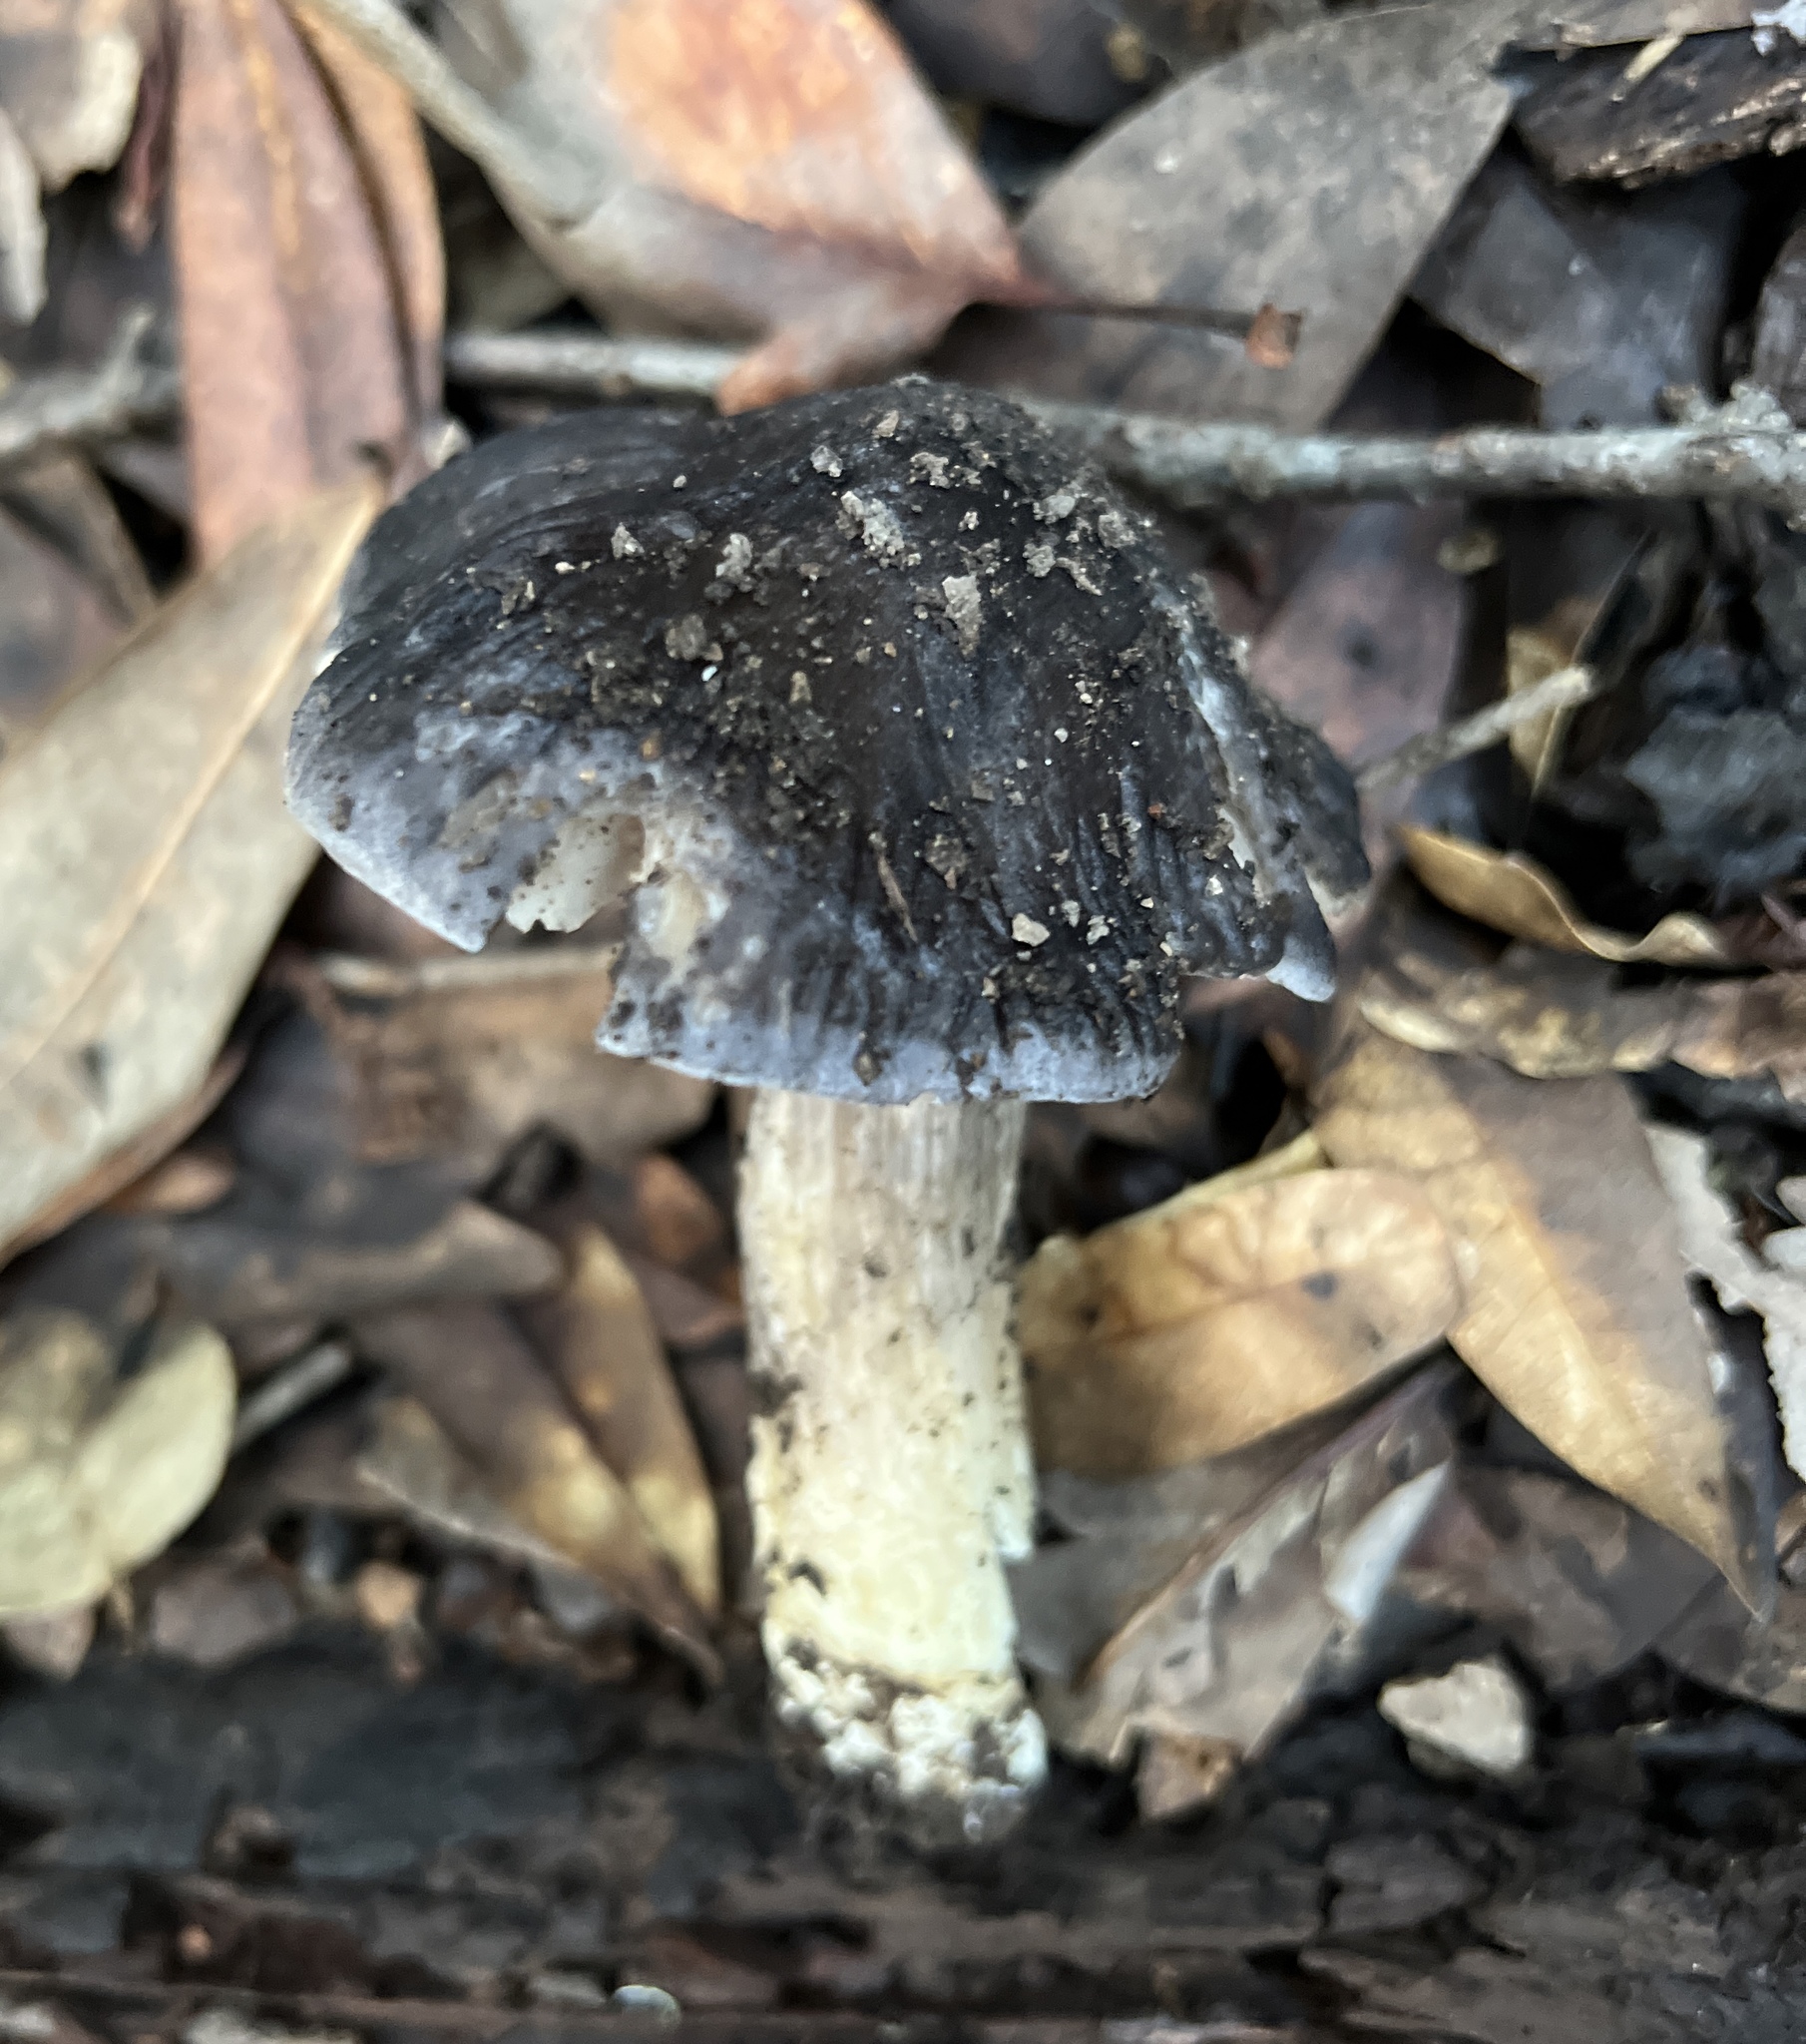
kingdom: Fungi
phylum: Basidiomycota
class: Agaricomycetes
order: Agaricales
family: Entolomataceae
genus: Entoloma
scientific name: Entoloma medianox
